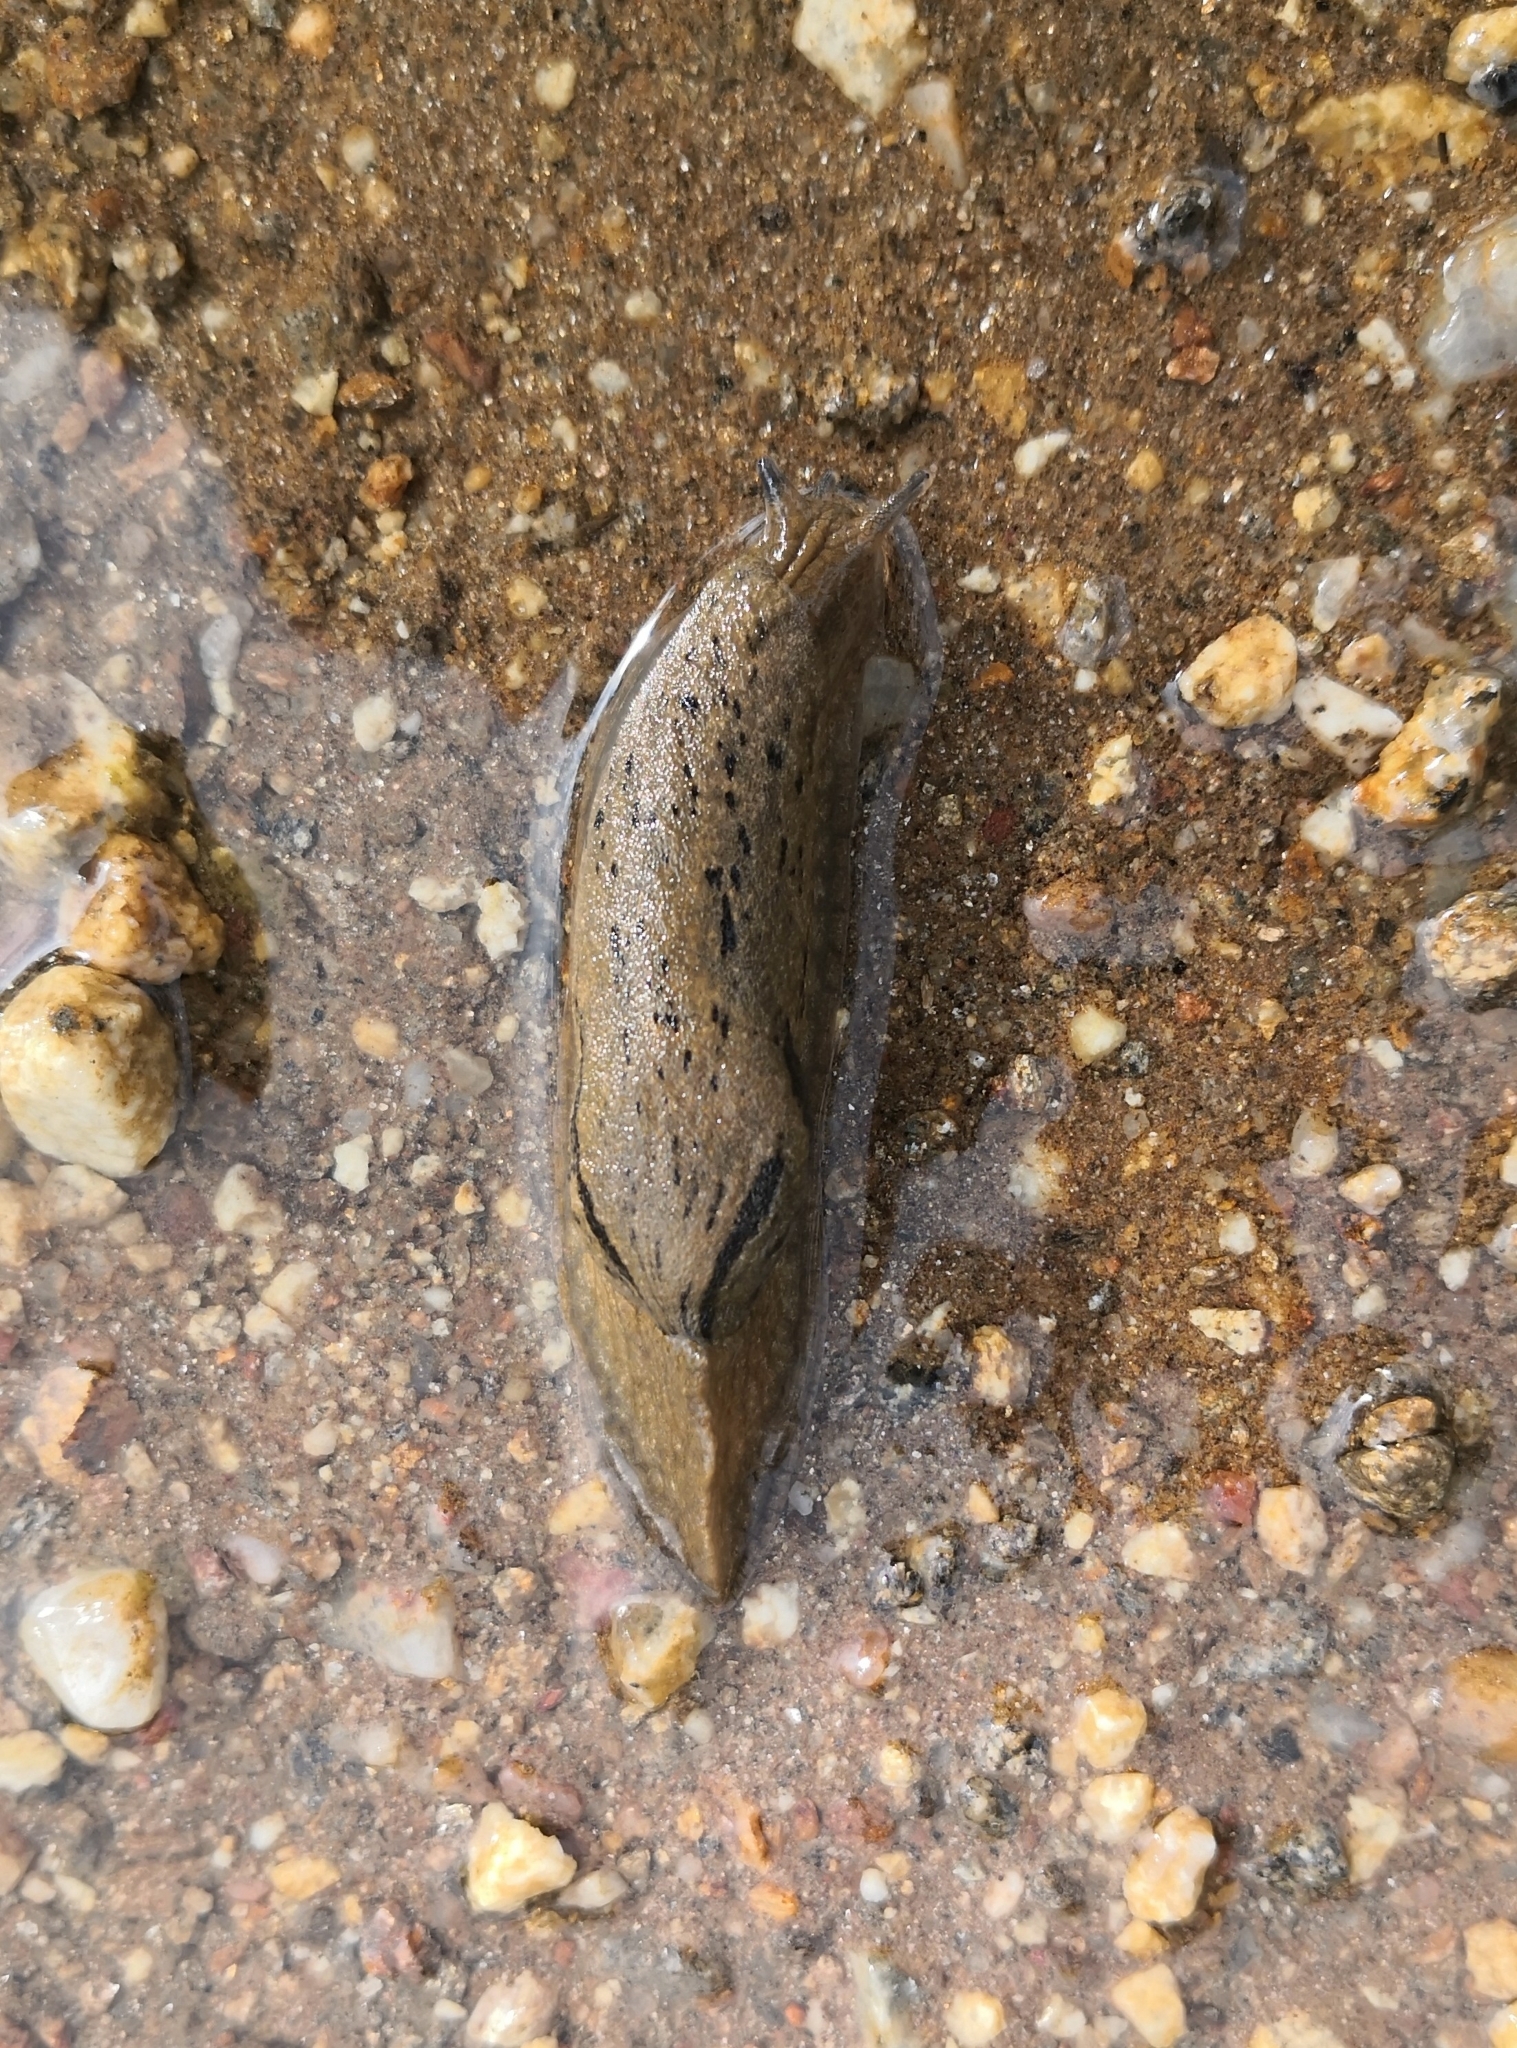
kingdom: Animalia
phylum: Mollusca
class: Gastropoda
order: Stylommatophora
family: Parmacellidae
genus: Drusia
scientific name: Drusia valenciennii
